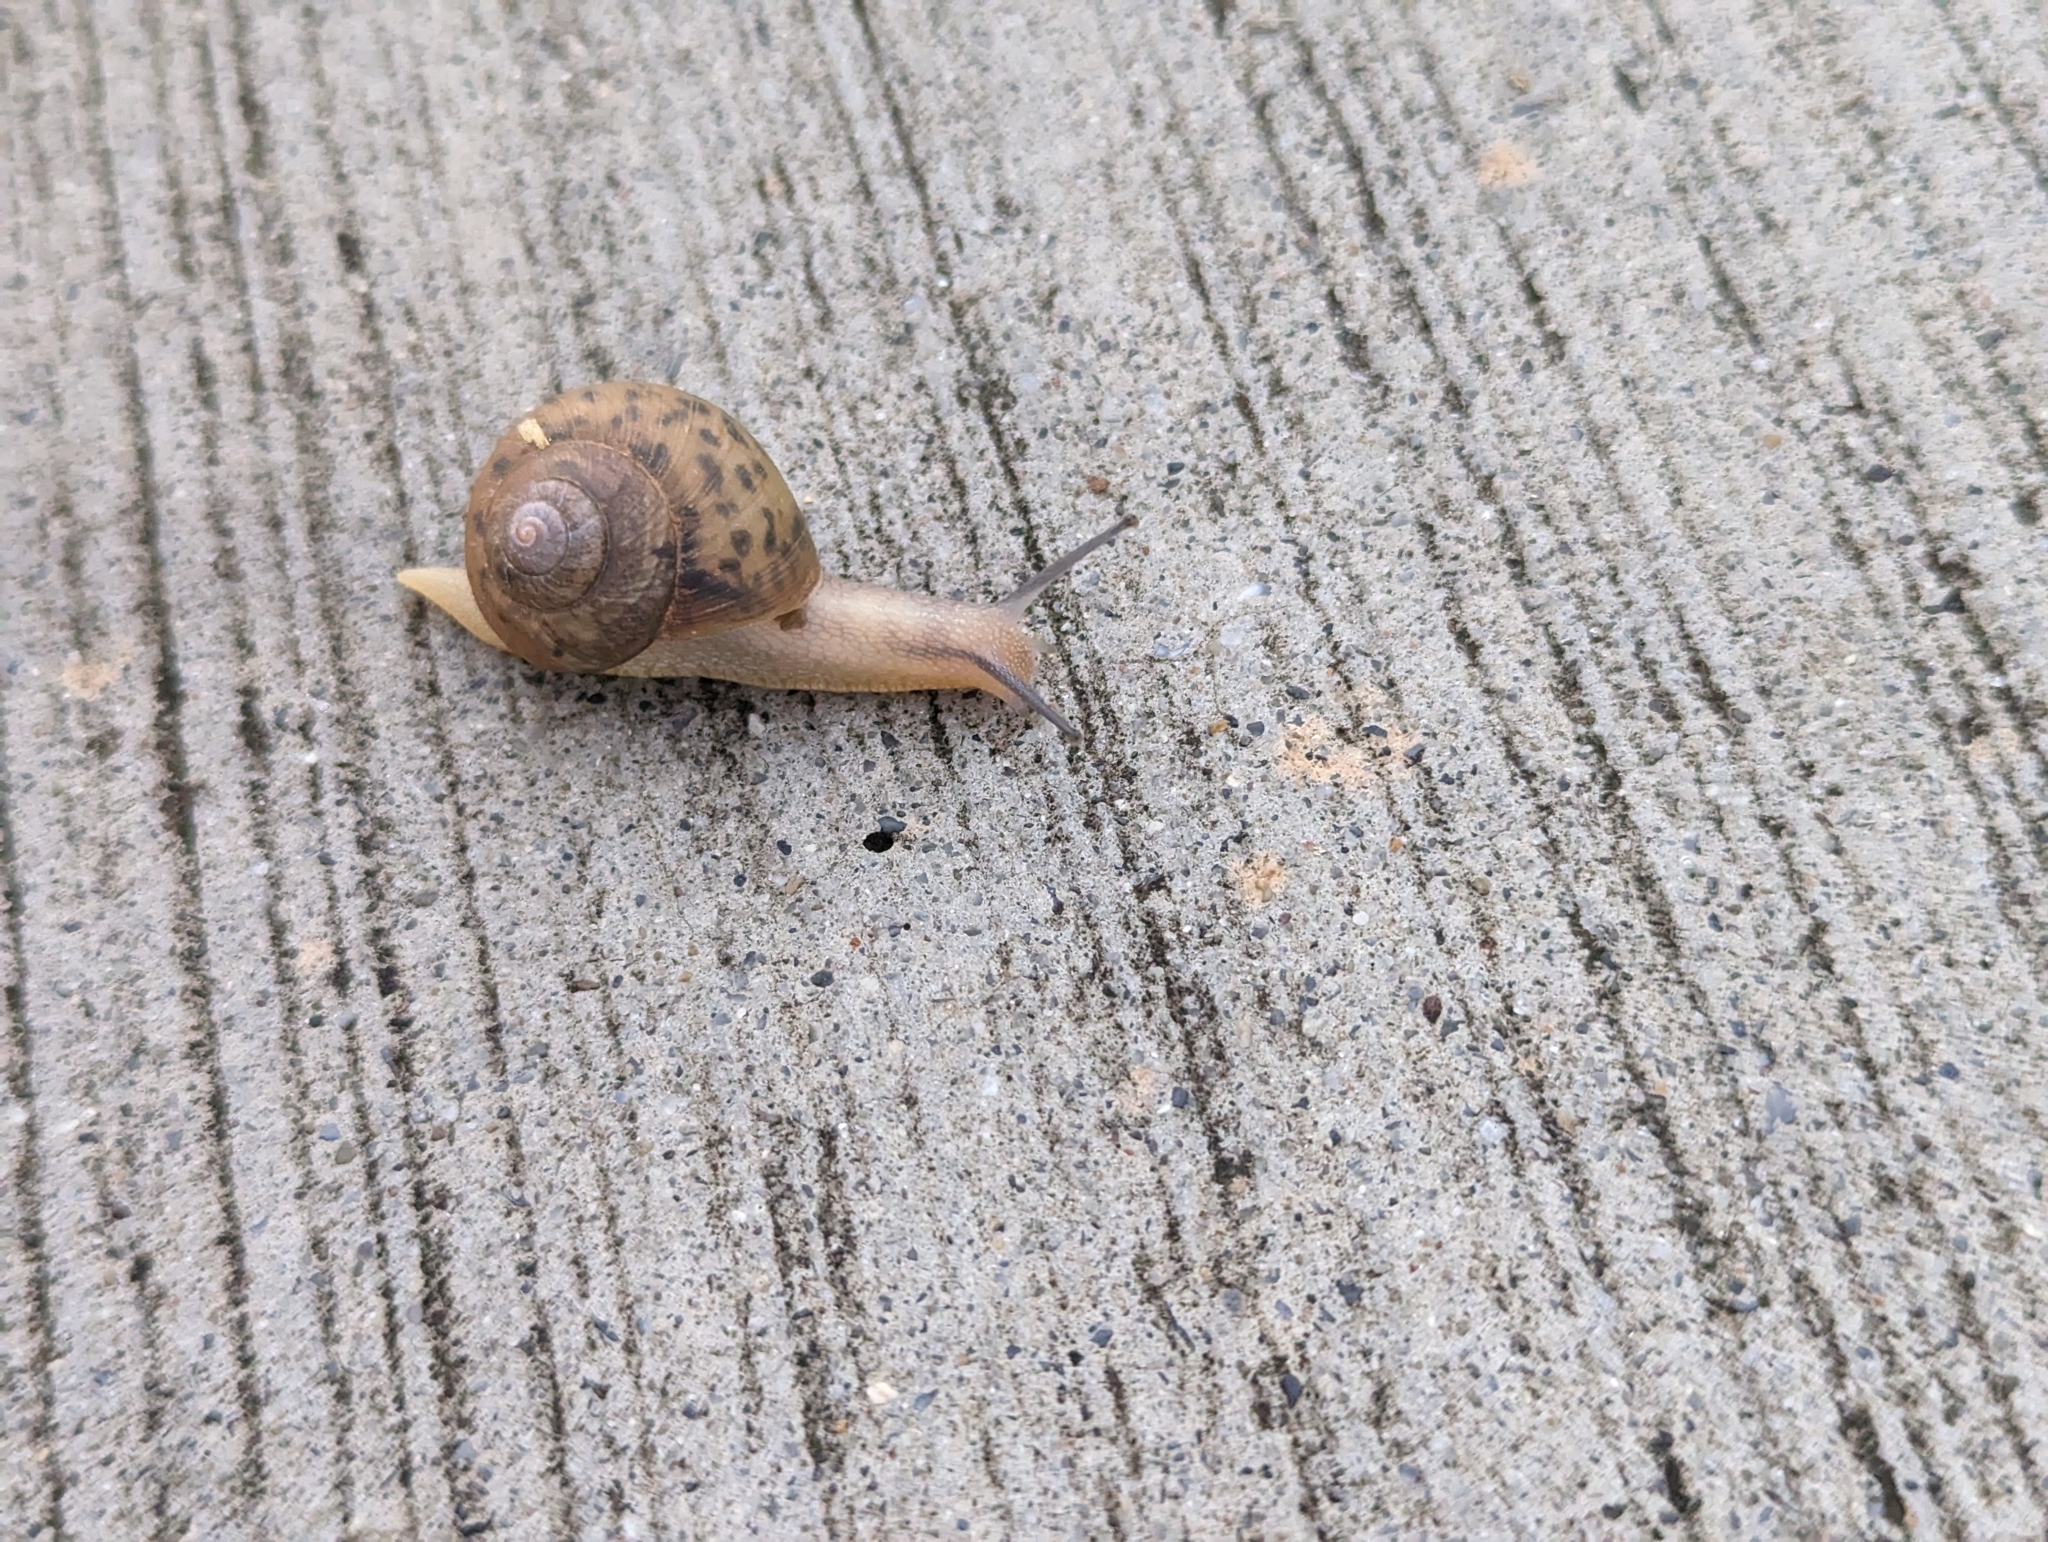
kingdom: Animalia
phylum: Mollusca
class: Gastropoda
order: Stylommatophora
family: Camaenidae
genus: Acusta
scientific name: Acusta despecta
